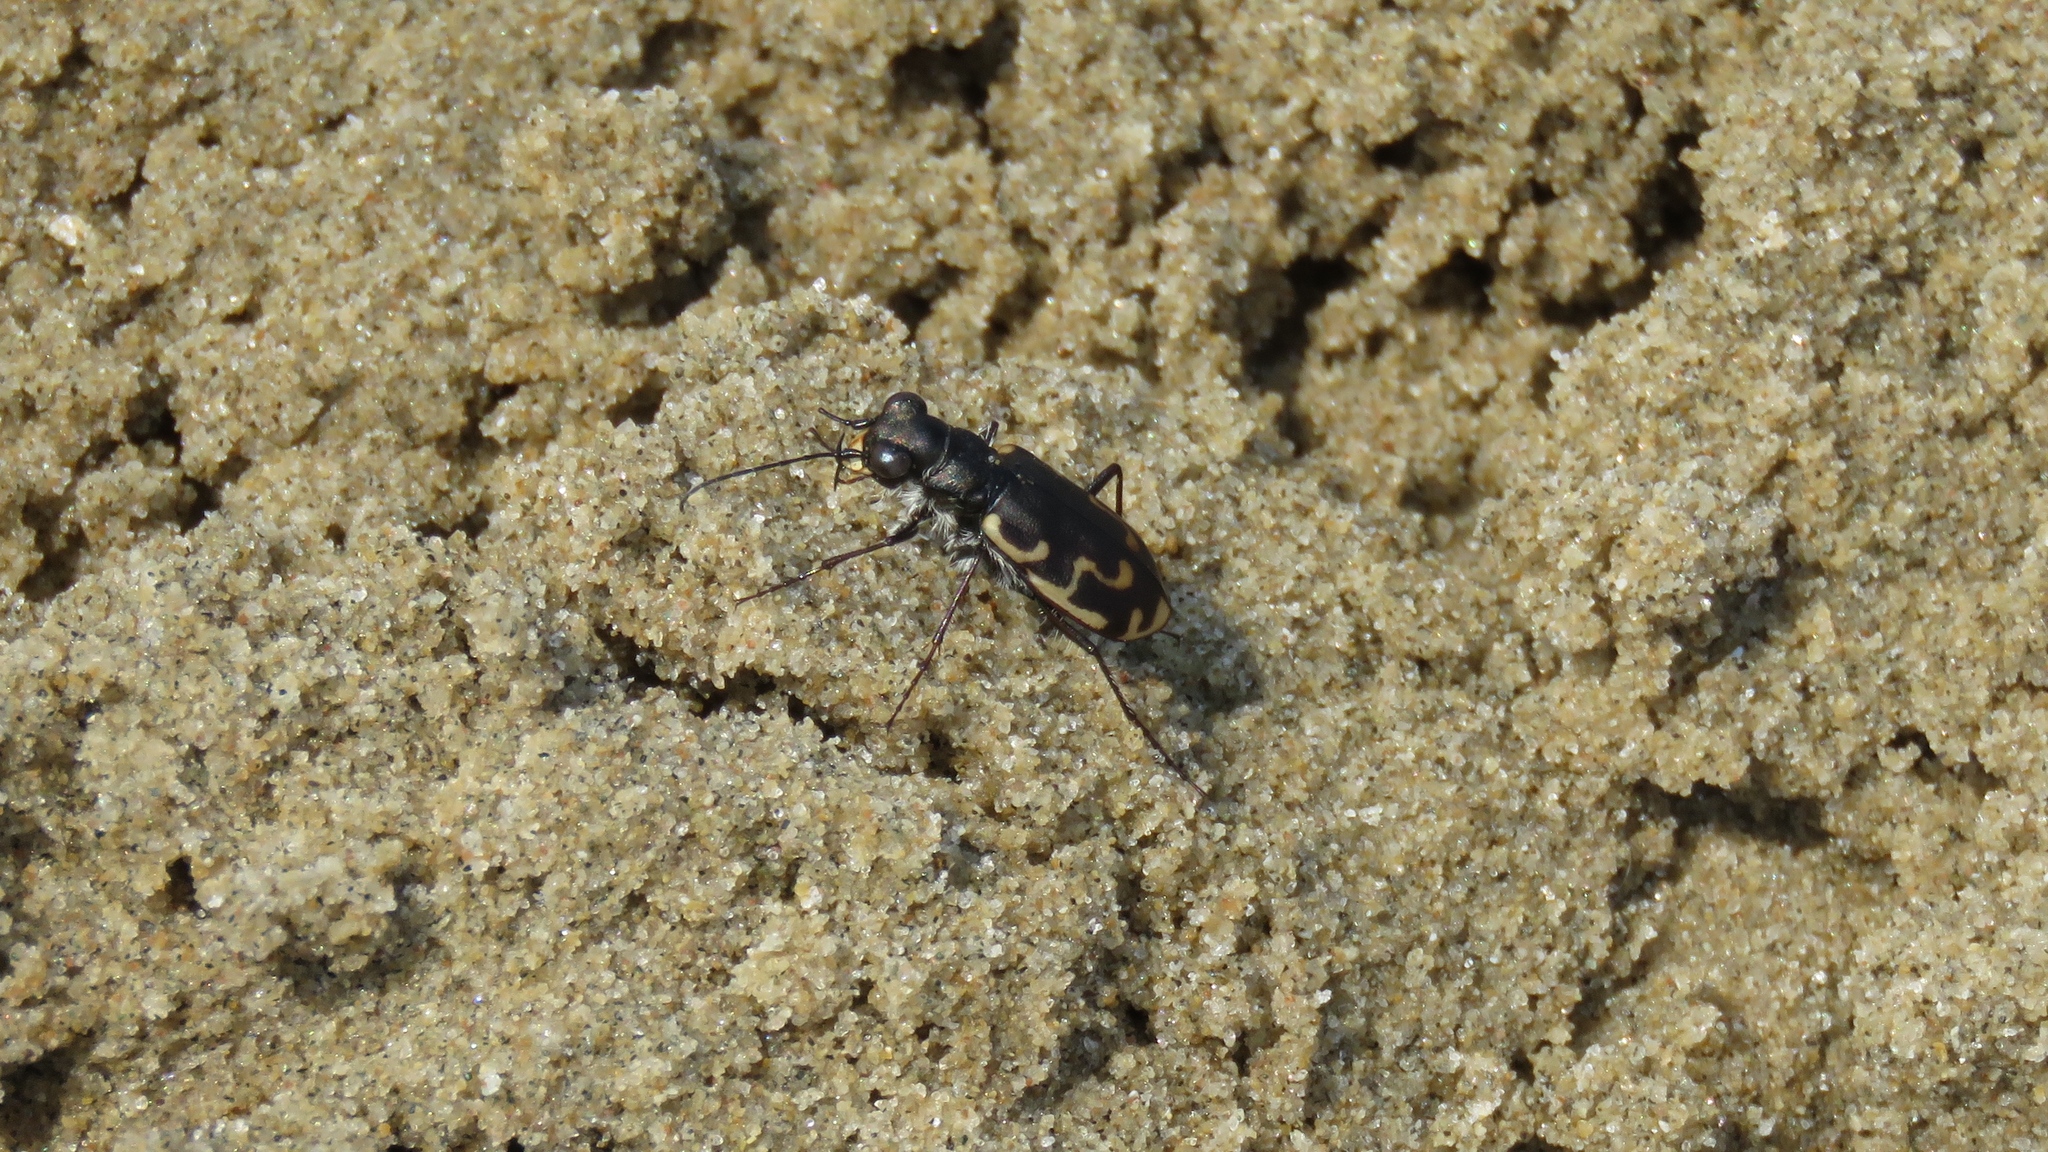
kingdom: Animalia
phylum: Arthropoda
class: Insecta
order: Coleoptera
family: Carabidae
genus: Cicindela
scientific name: Cicindela repanda
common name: Bronzed tiger beetle
